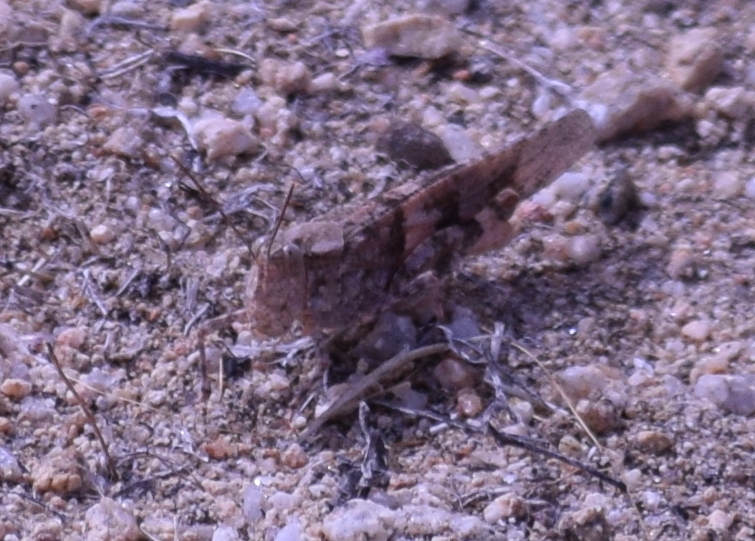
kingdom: Animalia
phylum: Arthropoda
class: Insecta
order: Orthoptera
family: Acrididae
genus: Trimerotropis
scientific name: Trimerotropis pallidipennis
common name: Pallid-winged grasshopper
